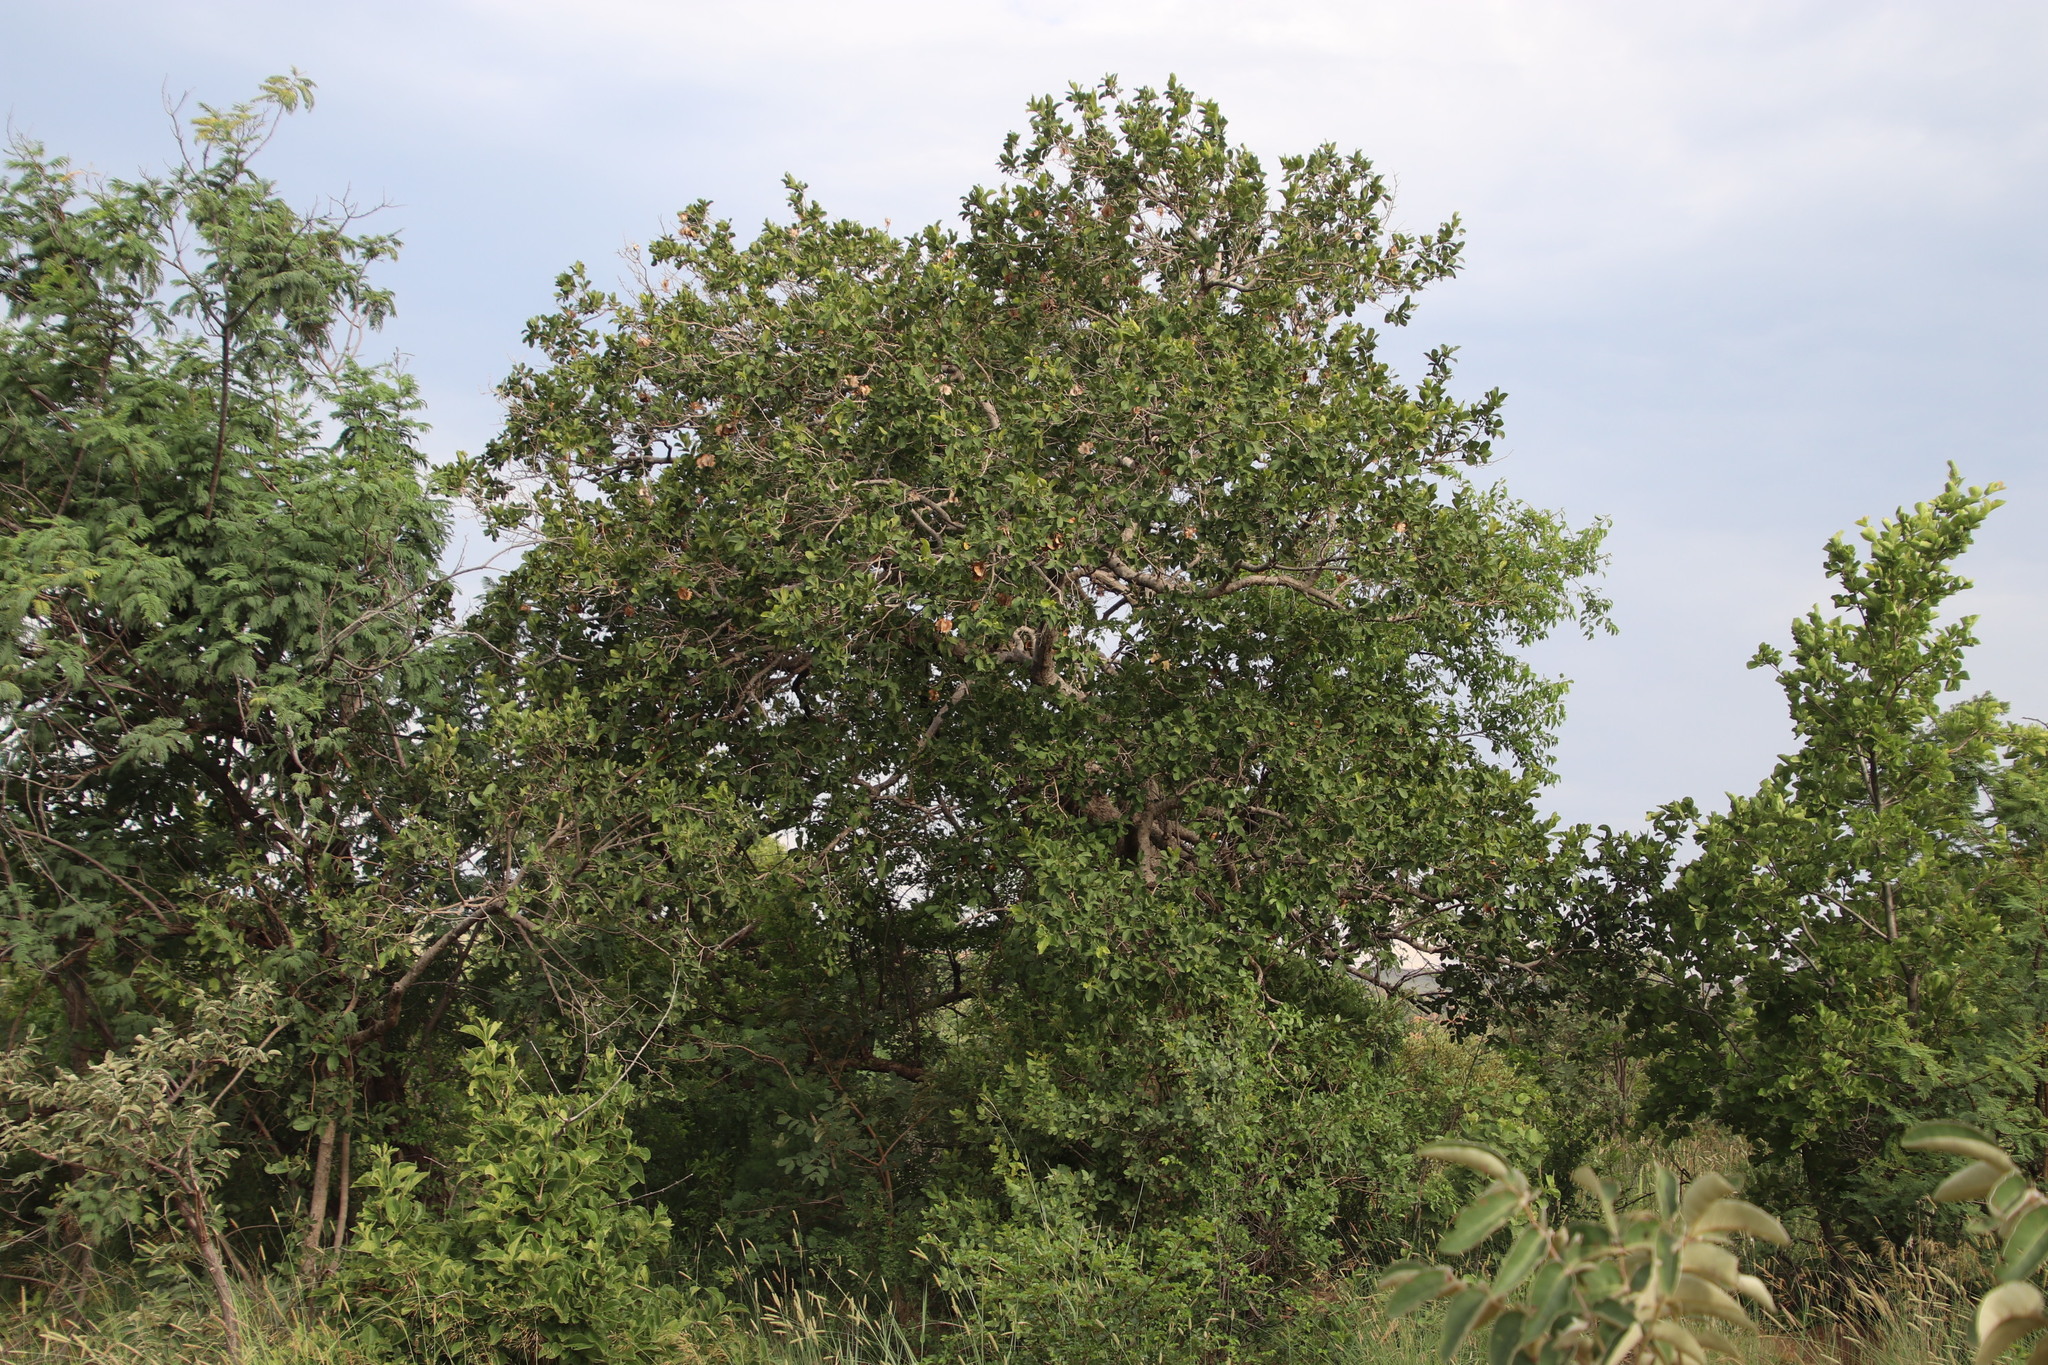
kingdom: Plantae
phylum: Tracheophyta
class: Magnoliopsida
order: Myrtales
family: Combretaceae
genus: Combretum
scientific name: Combretum zeyheri
